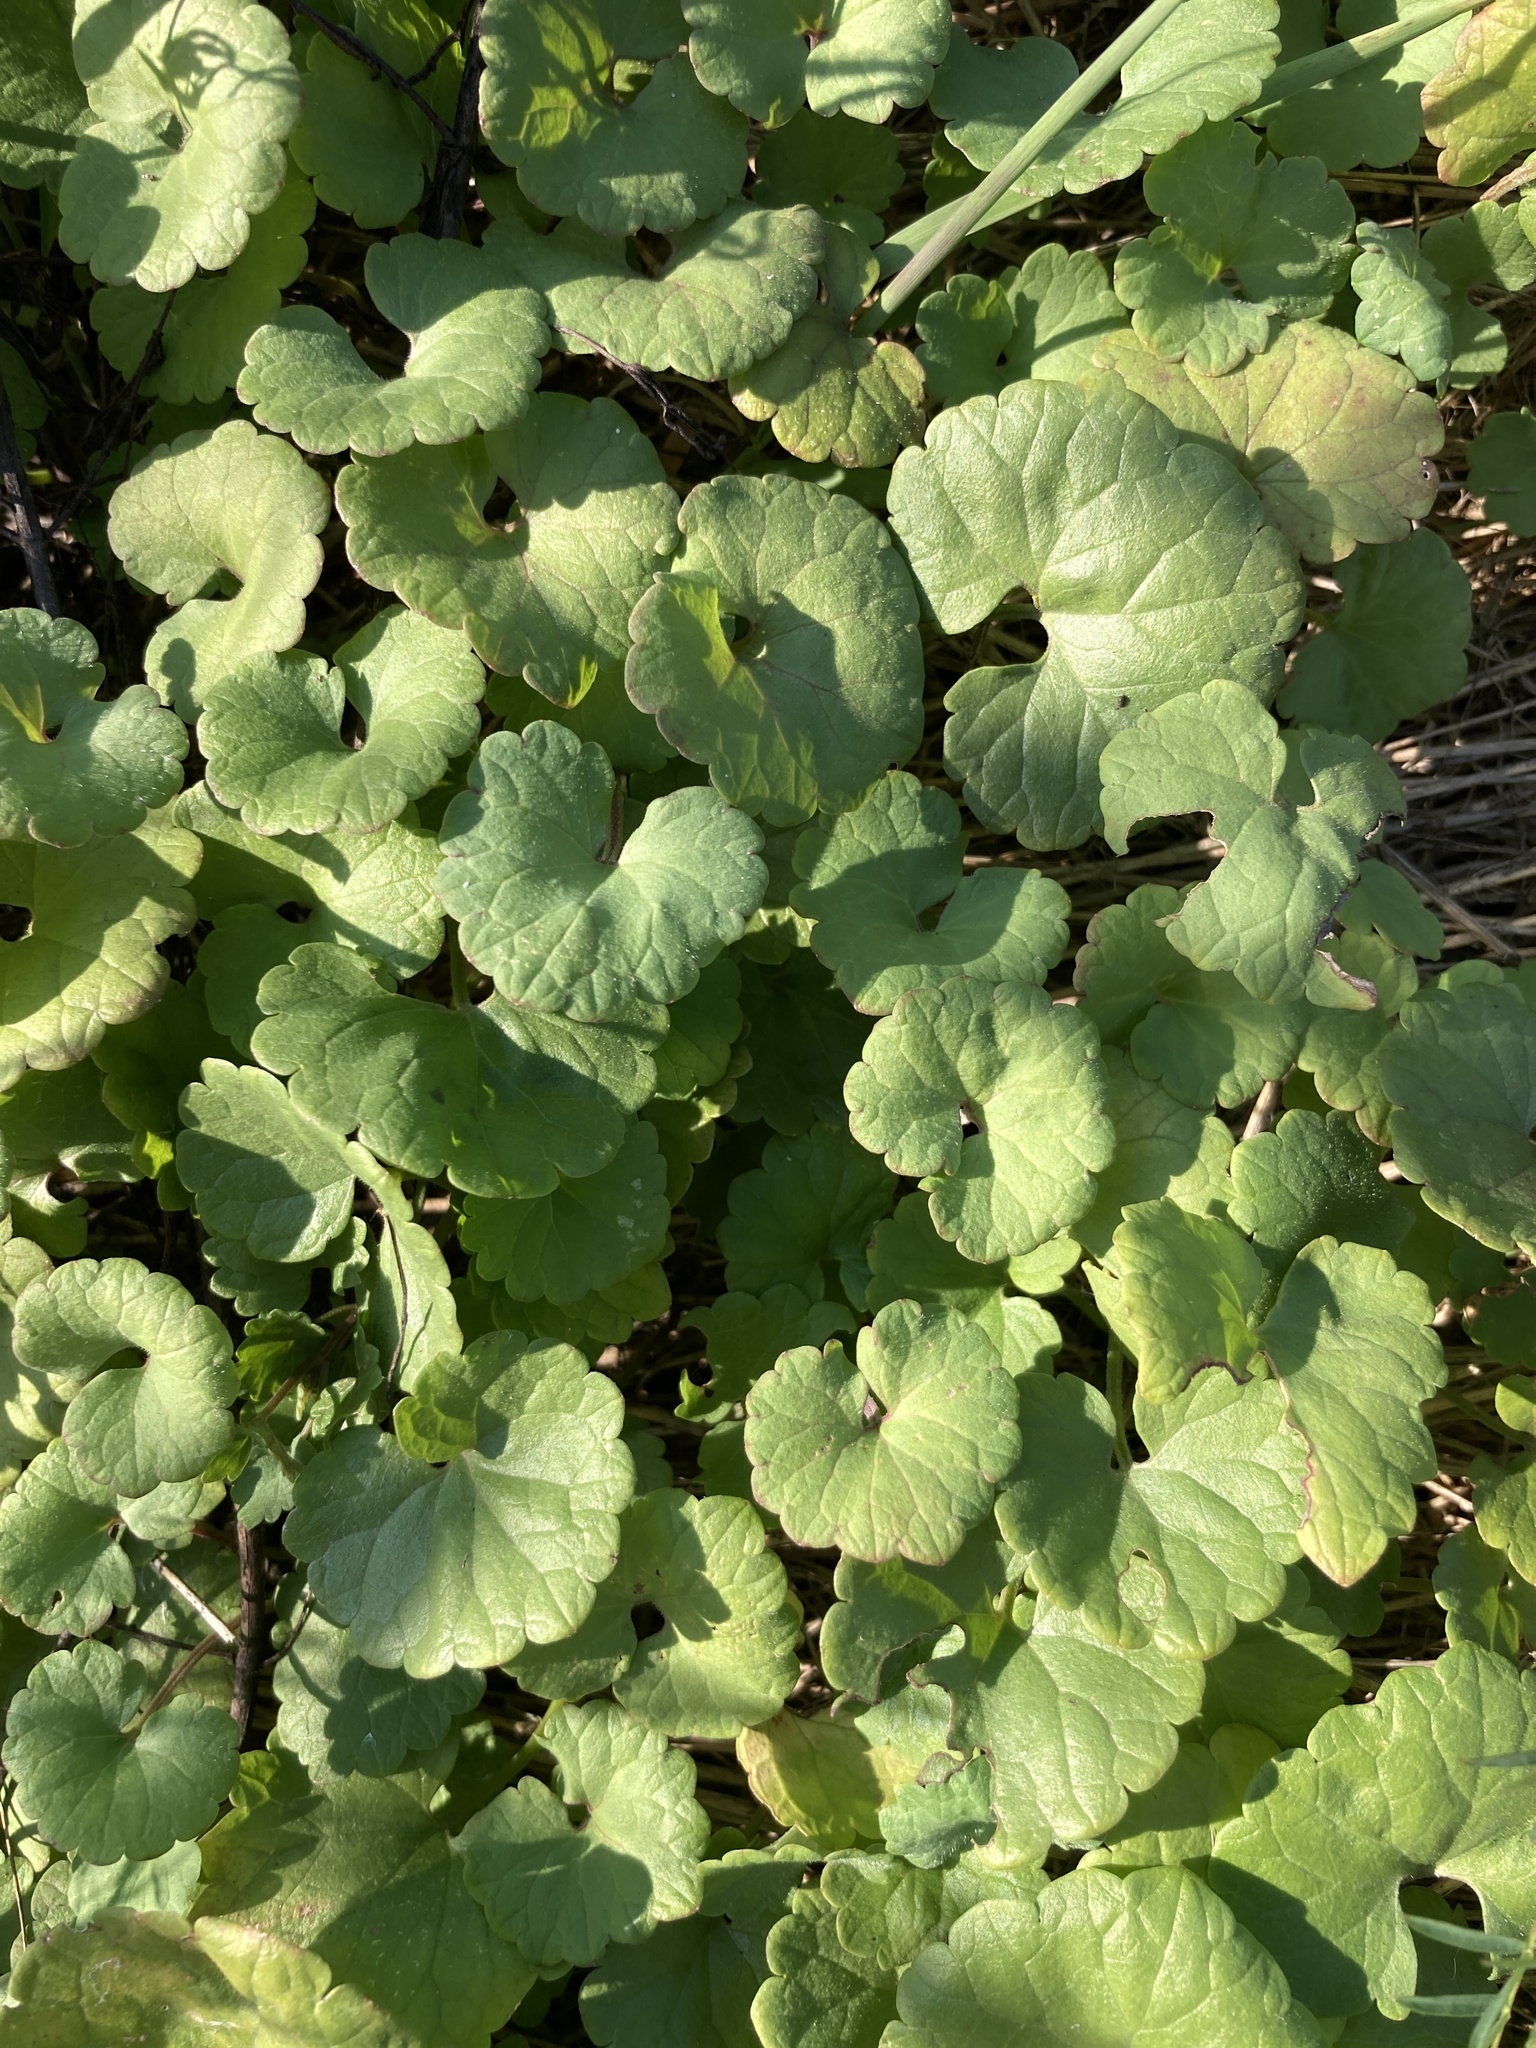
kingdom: Plantae
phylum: Tracheophyta
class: Magnoliopsida
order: Lamiales
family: Lamiaceae
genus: Glechoma
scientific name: Glechoma hederacea
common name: Ground ivy
